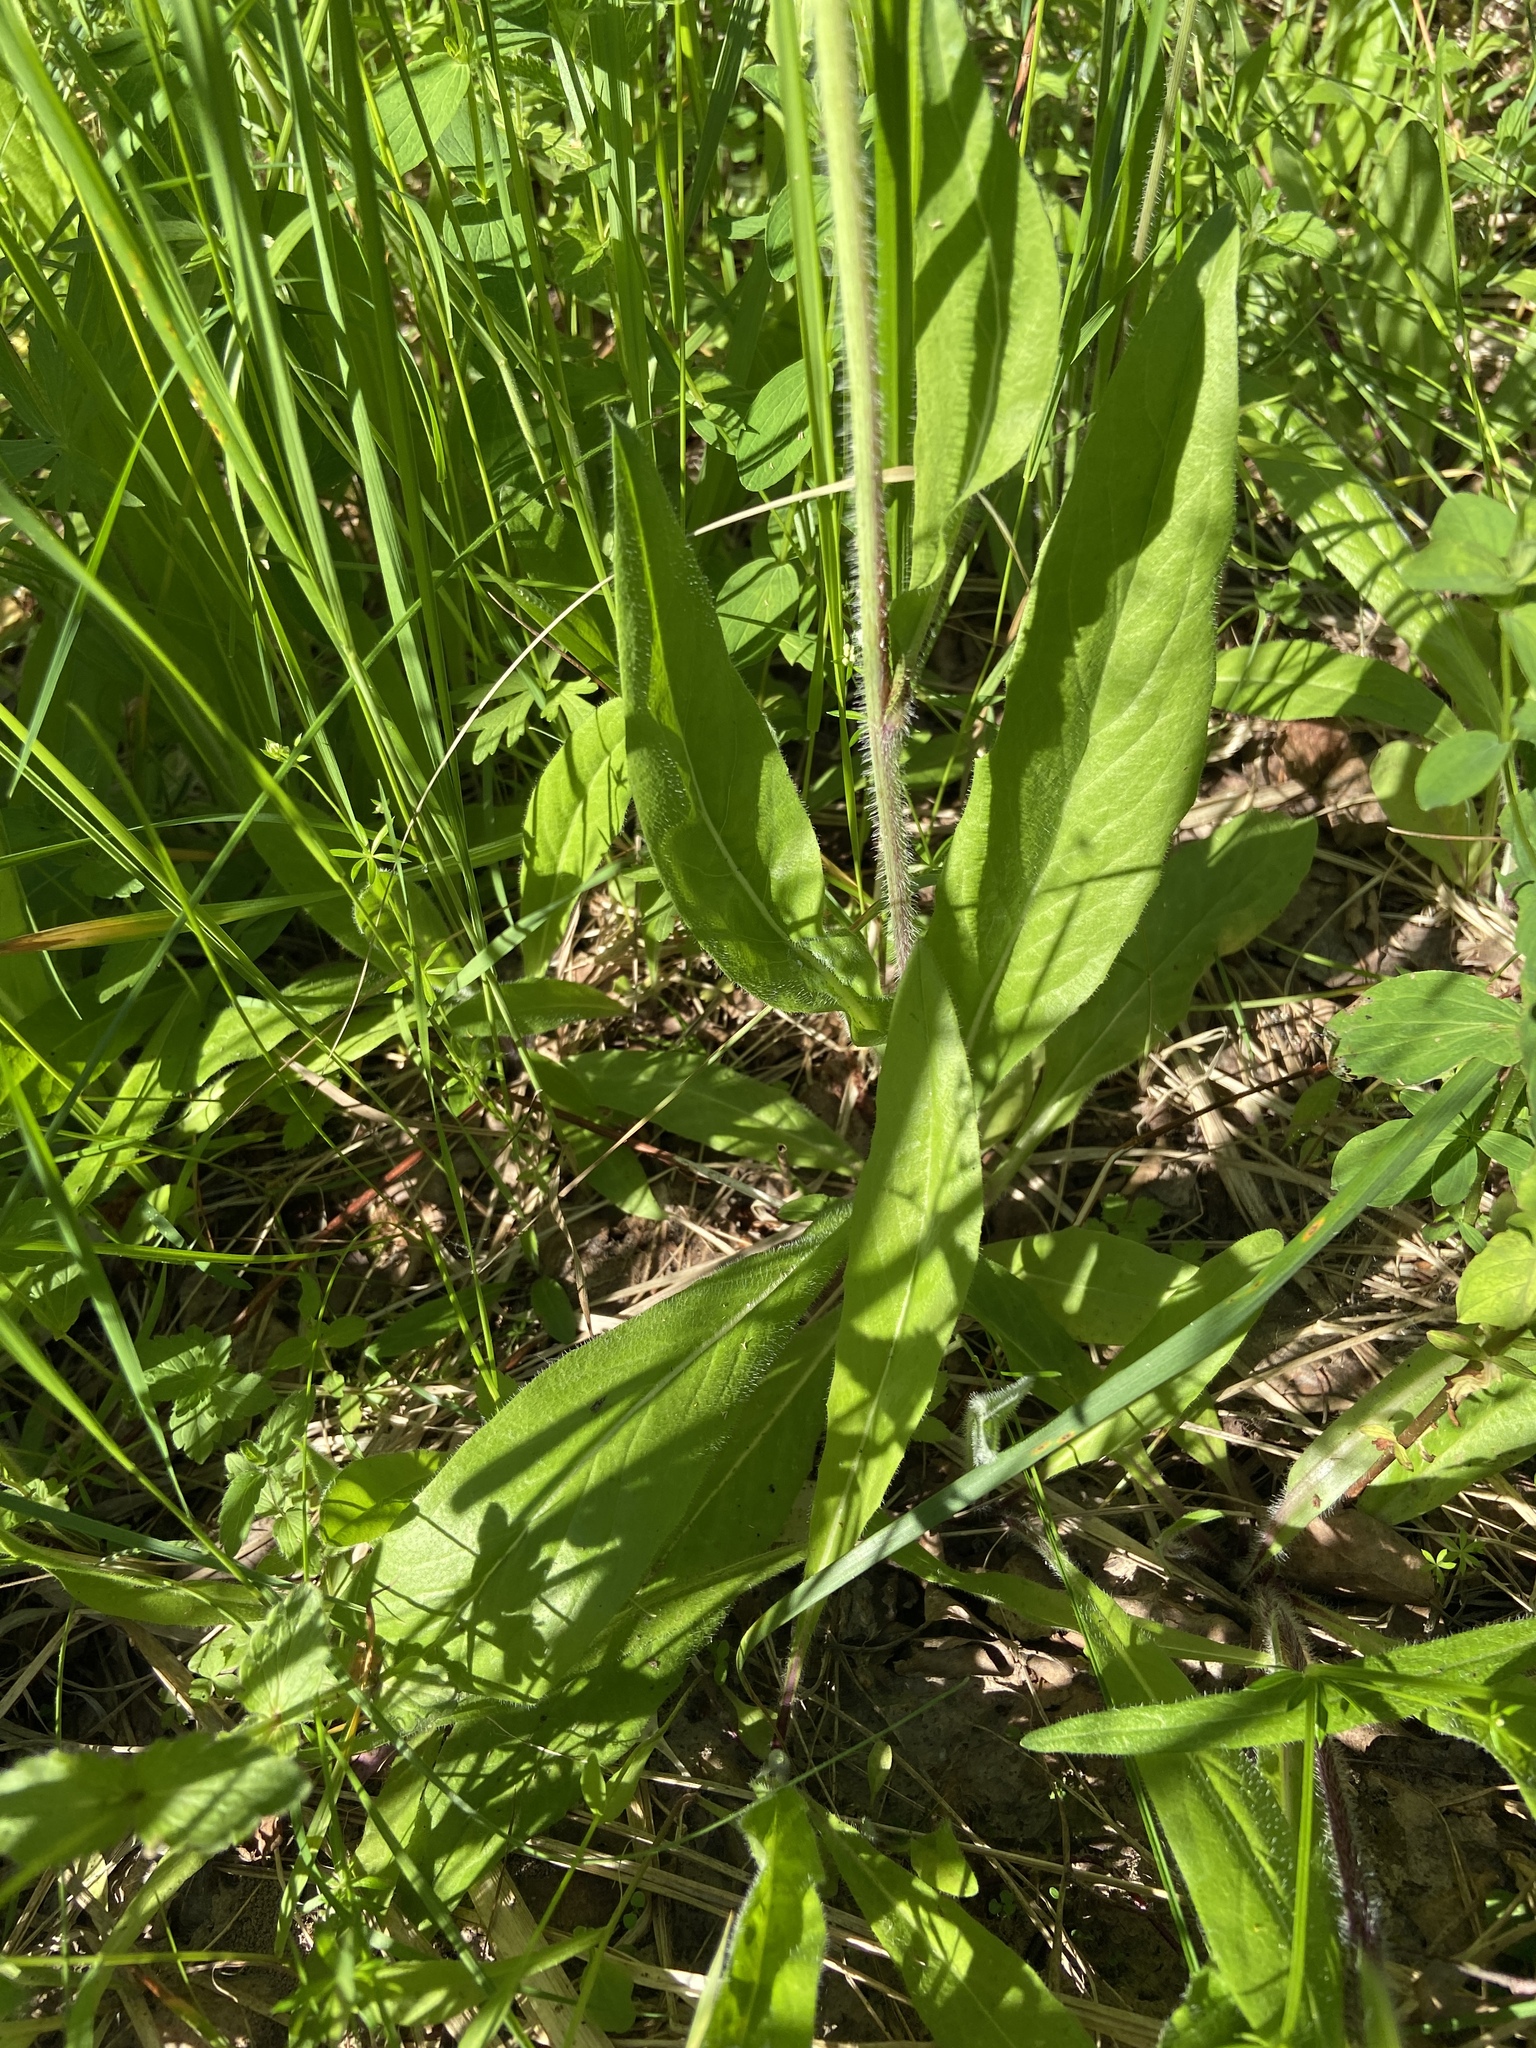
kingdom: Plantae
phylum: Tracheophyta
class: Magnoliopsida
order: Asterales
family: Asteraceae
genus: Pilosella
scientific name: Pilosella onegensis
